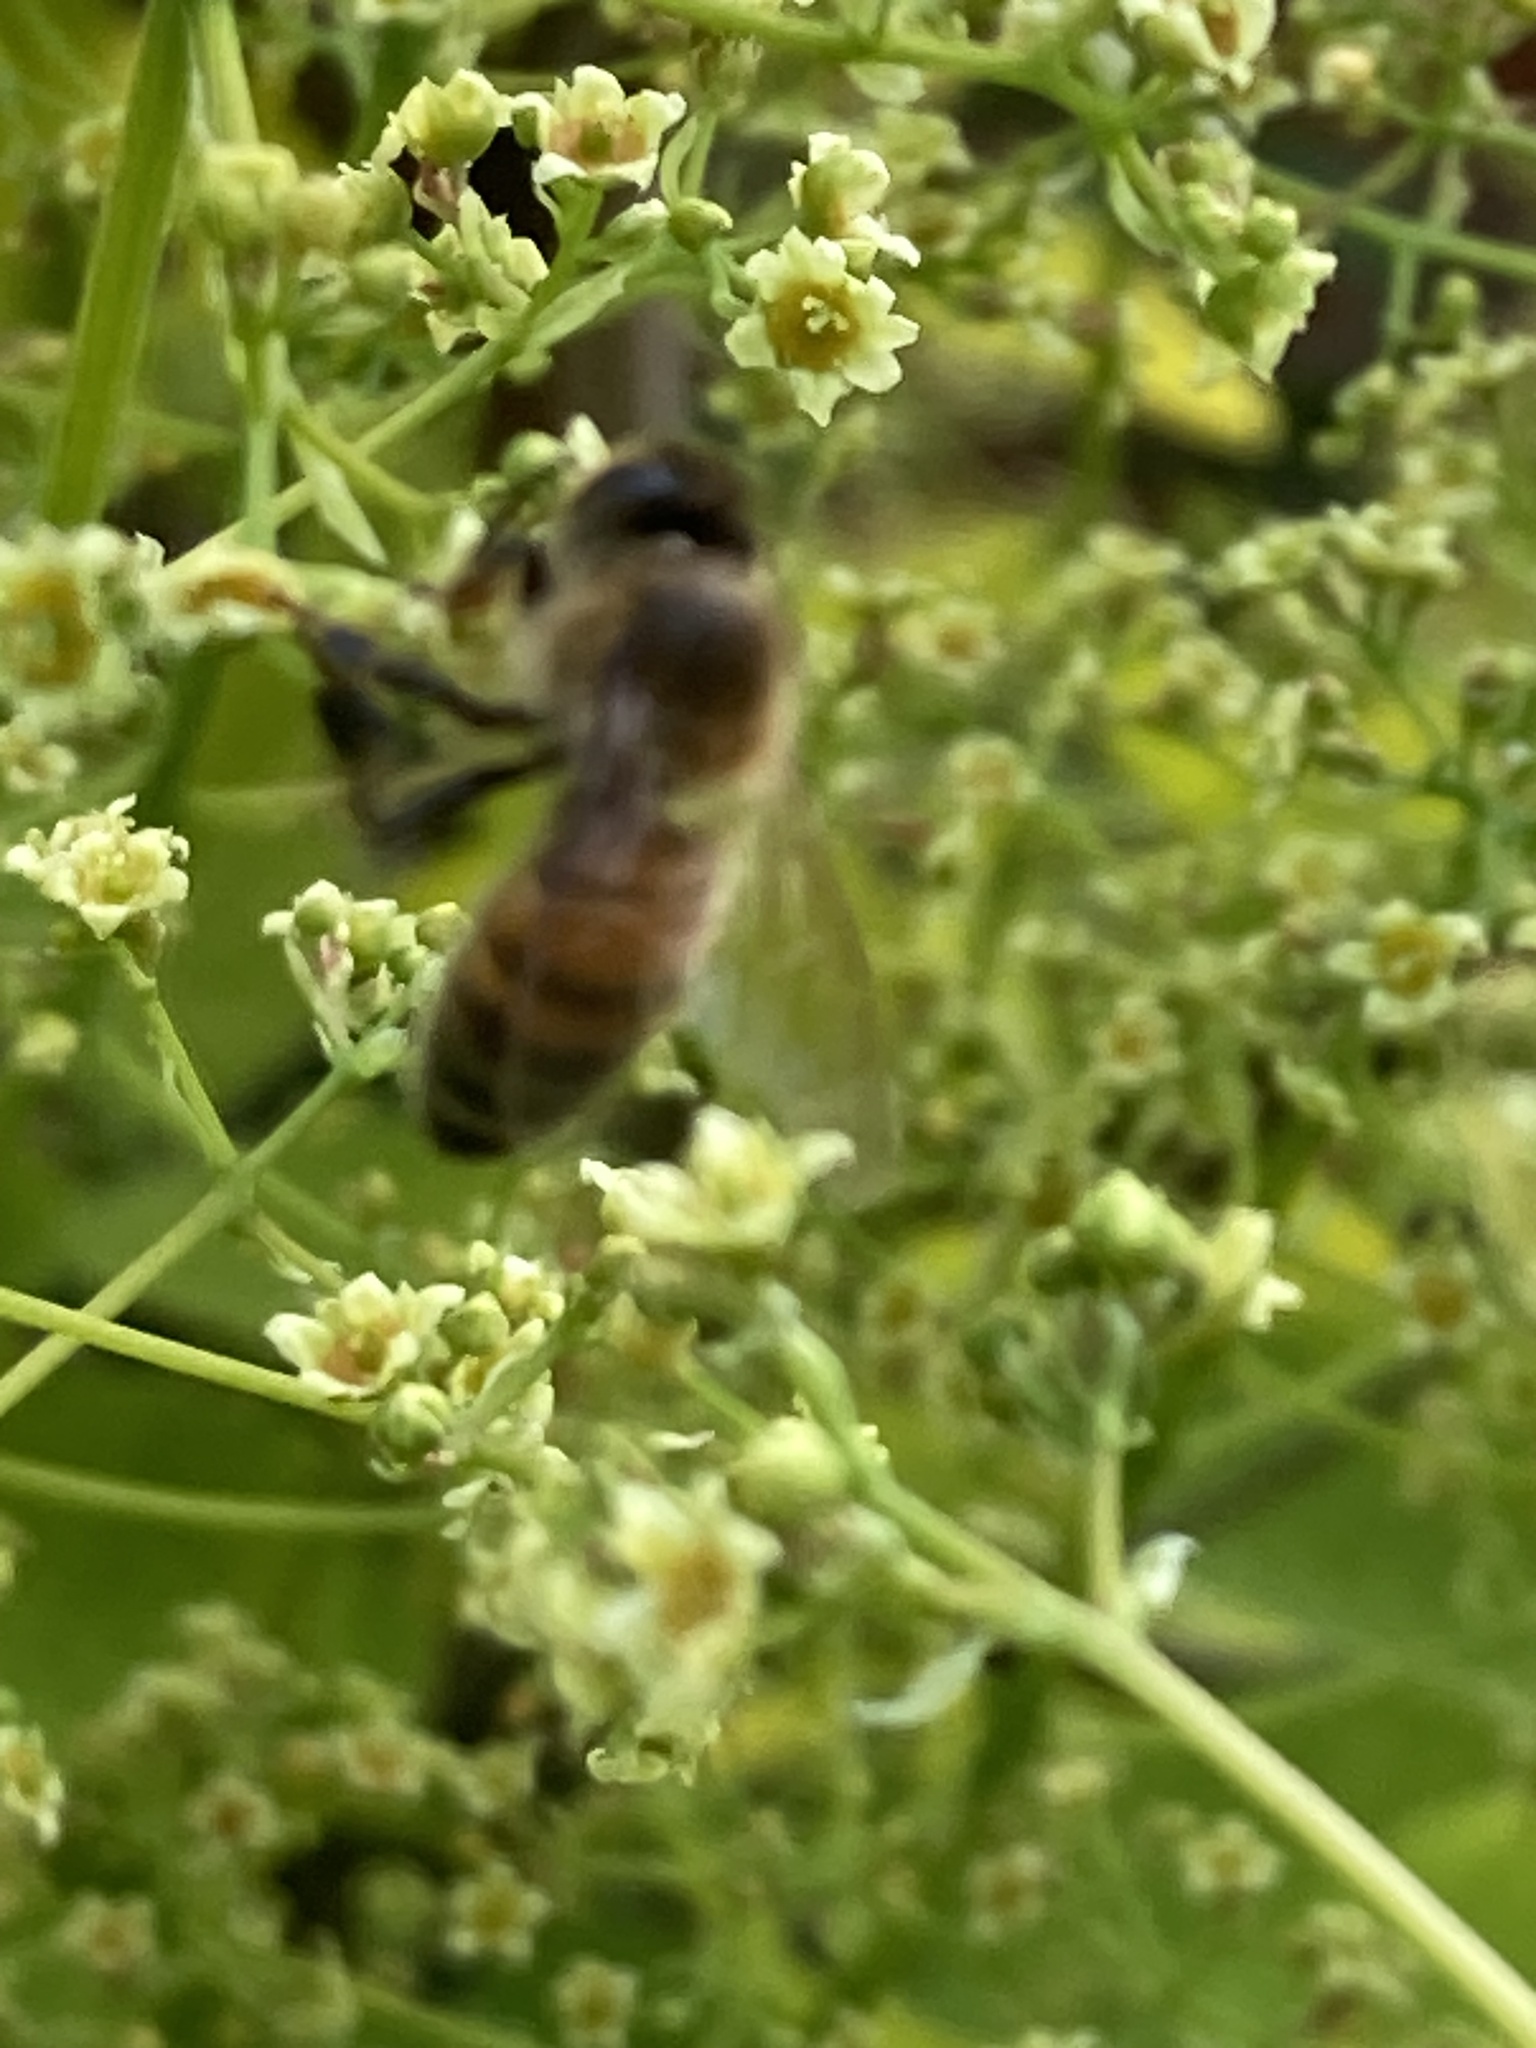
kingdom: Animalia
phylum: Arthropoda
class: Insecta
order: Hymenoptera
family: Apidae
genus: Apis
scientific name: Apis mellifera
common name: Honey bee
